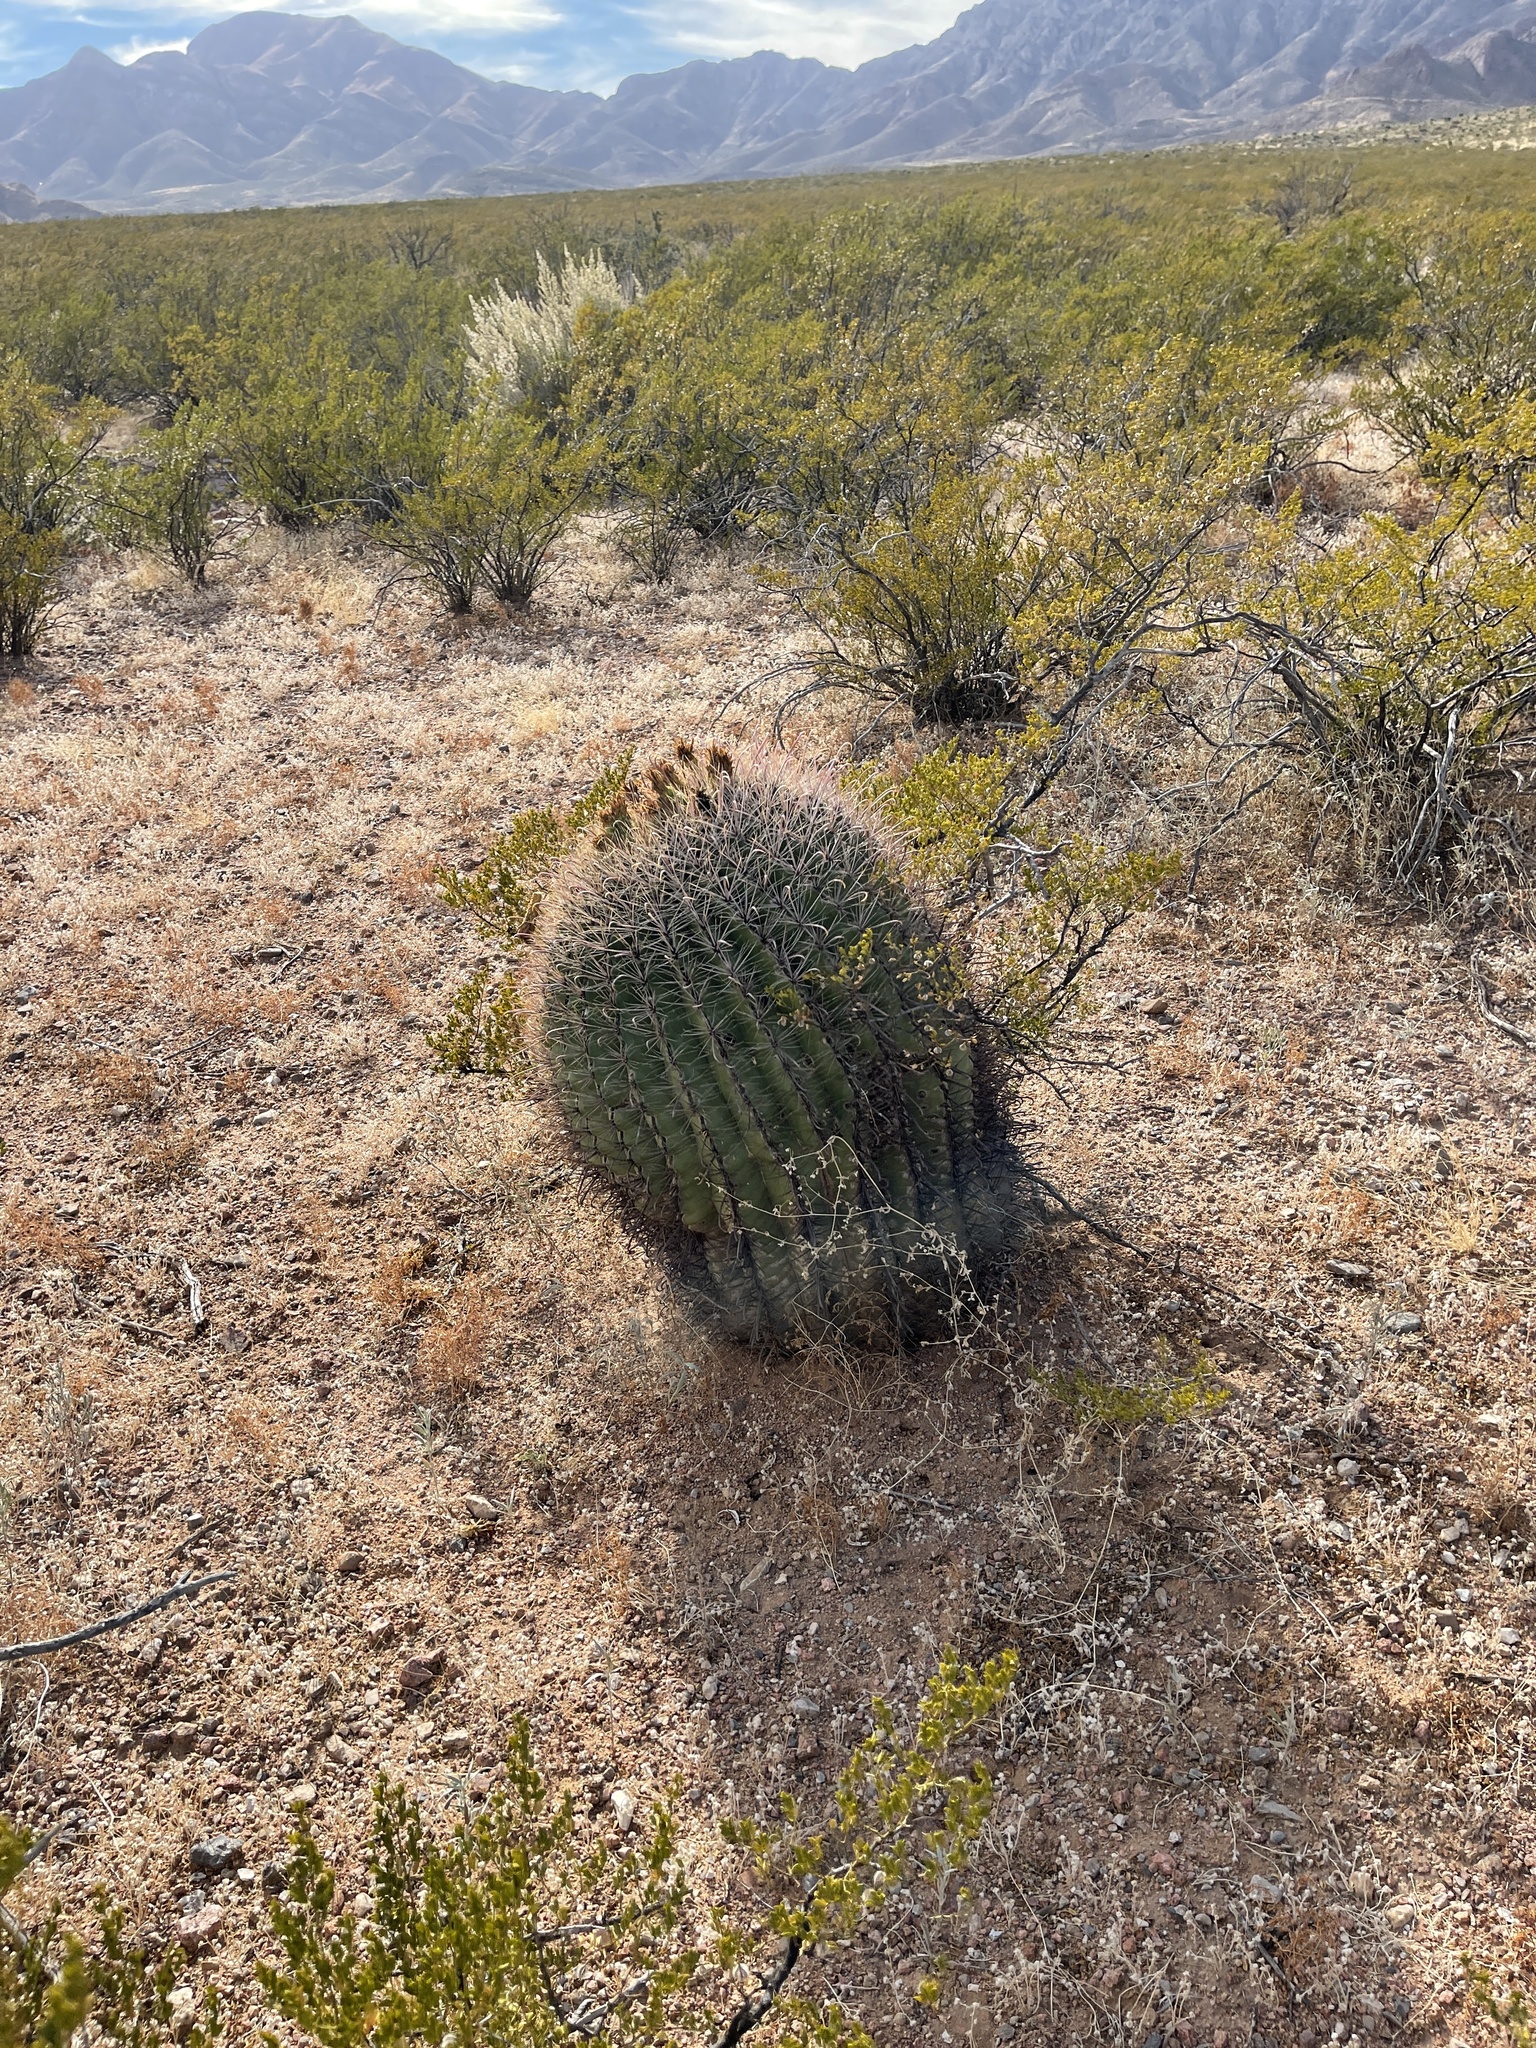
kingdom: Plantae
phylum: Tracheophyta
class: Magnoliopsida
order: Caryophyllales
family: Cactaceae
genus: Ferocactus
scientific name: Ferocactus wislizeni
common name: Candy barrel cactus
